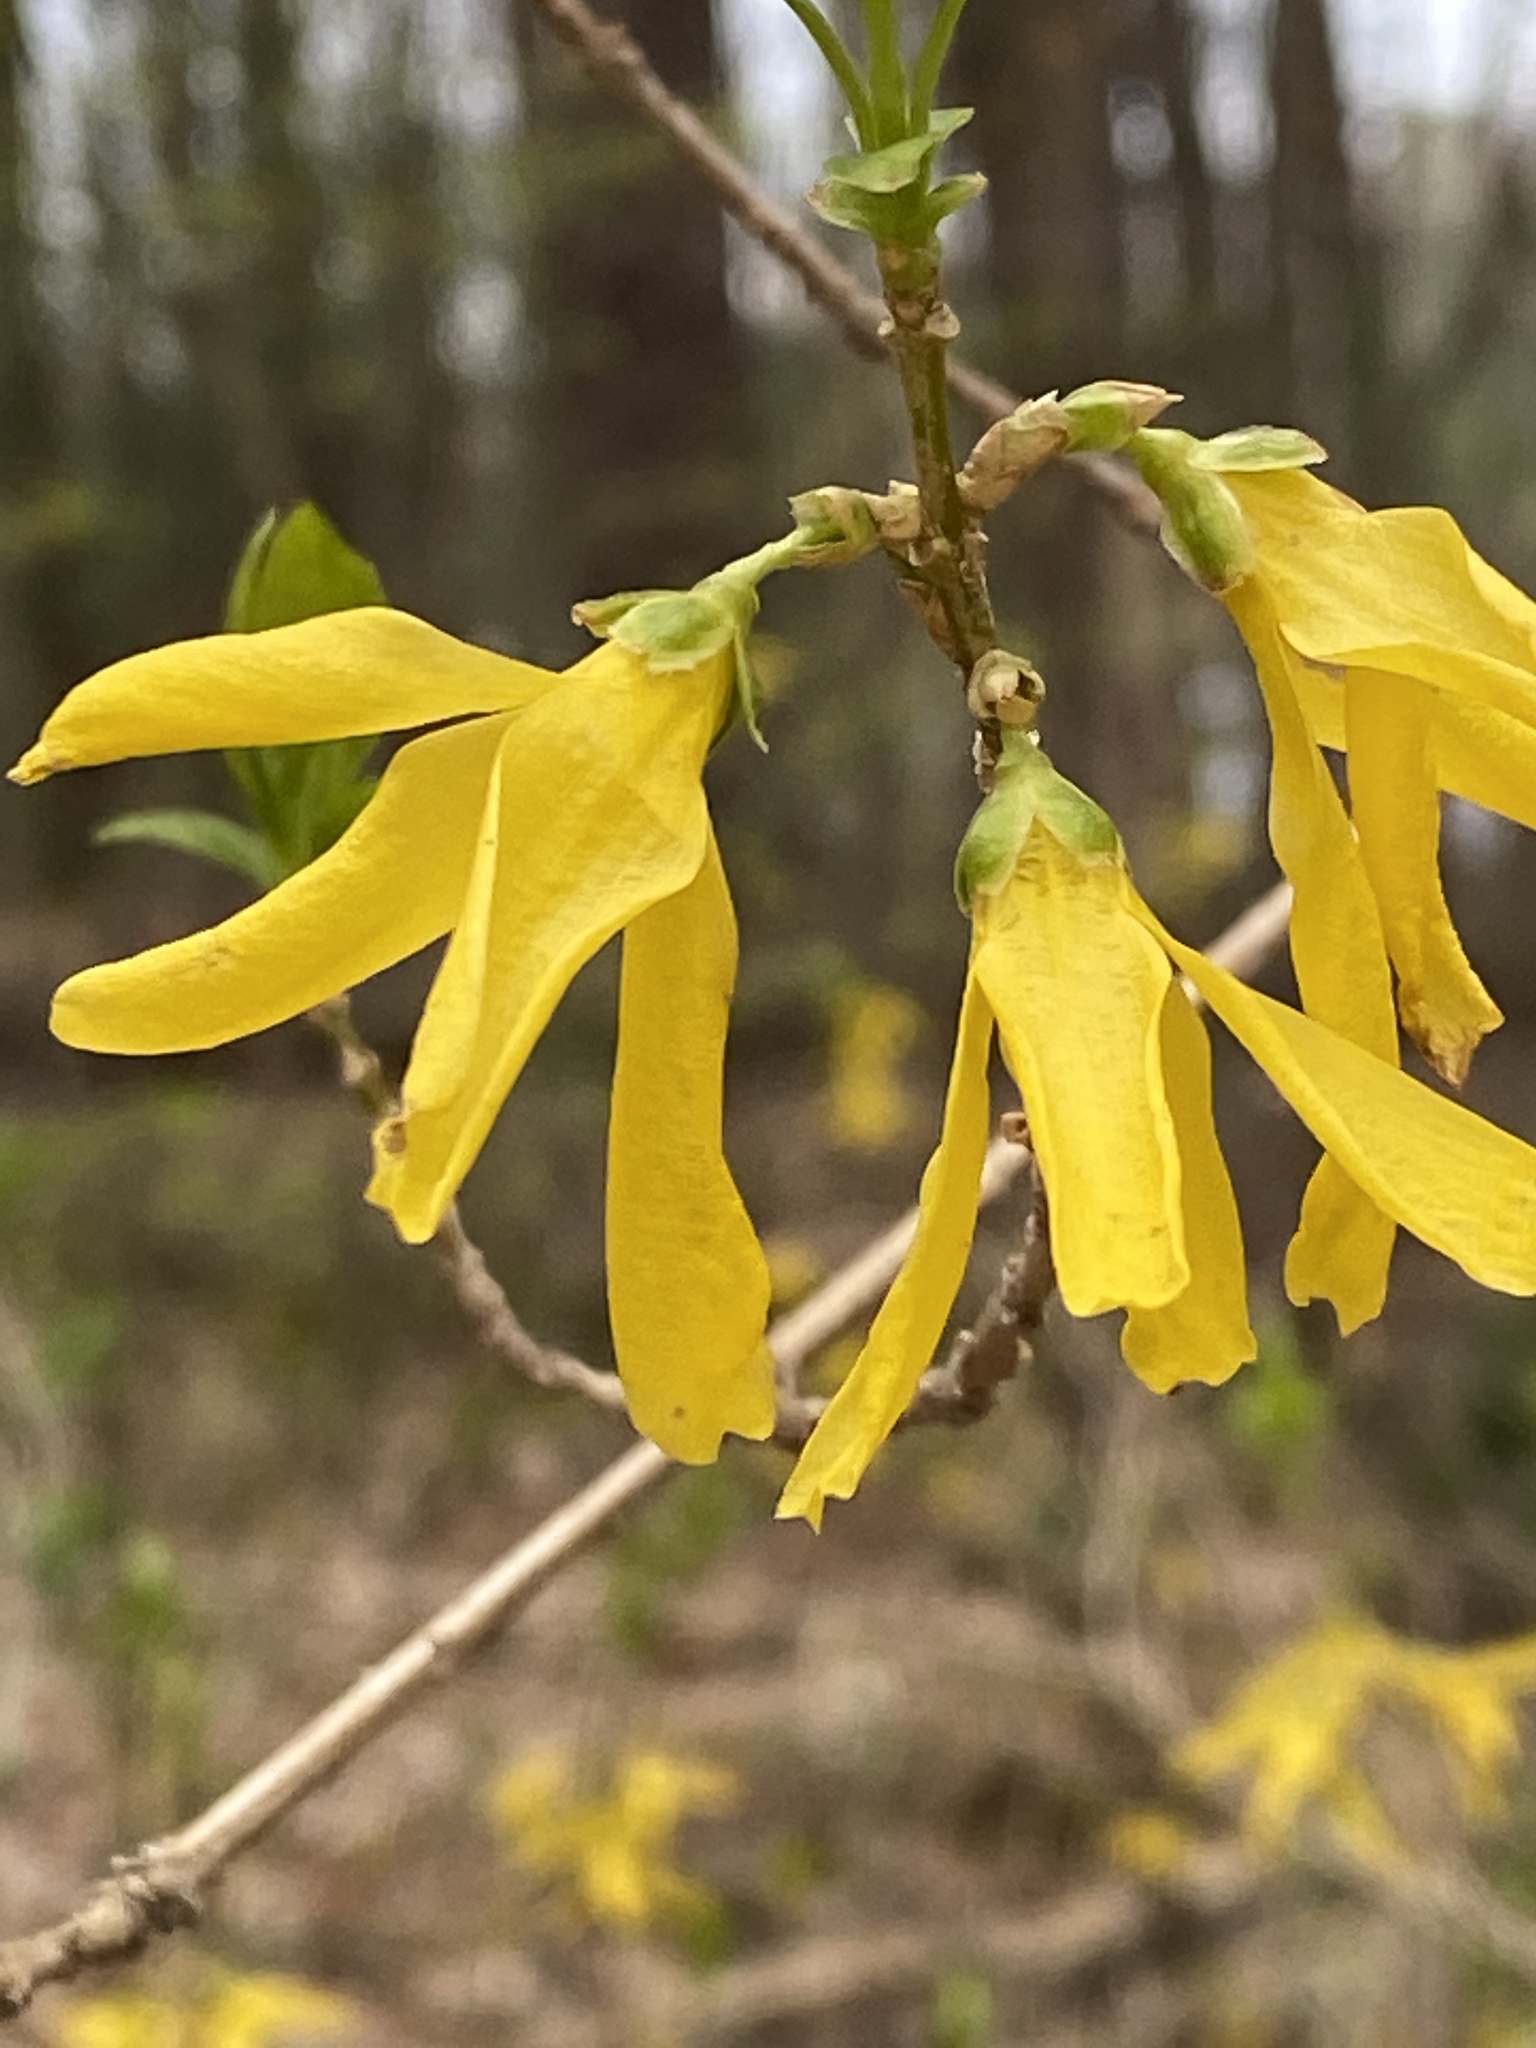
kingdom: Plantae
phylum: Tracheophyta
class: Magnoliopsida
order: Lamiales
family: Oleaceae
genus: Forsythia
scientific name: Forsythia intermedia
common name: Forsythia
